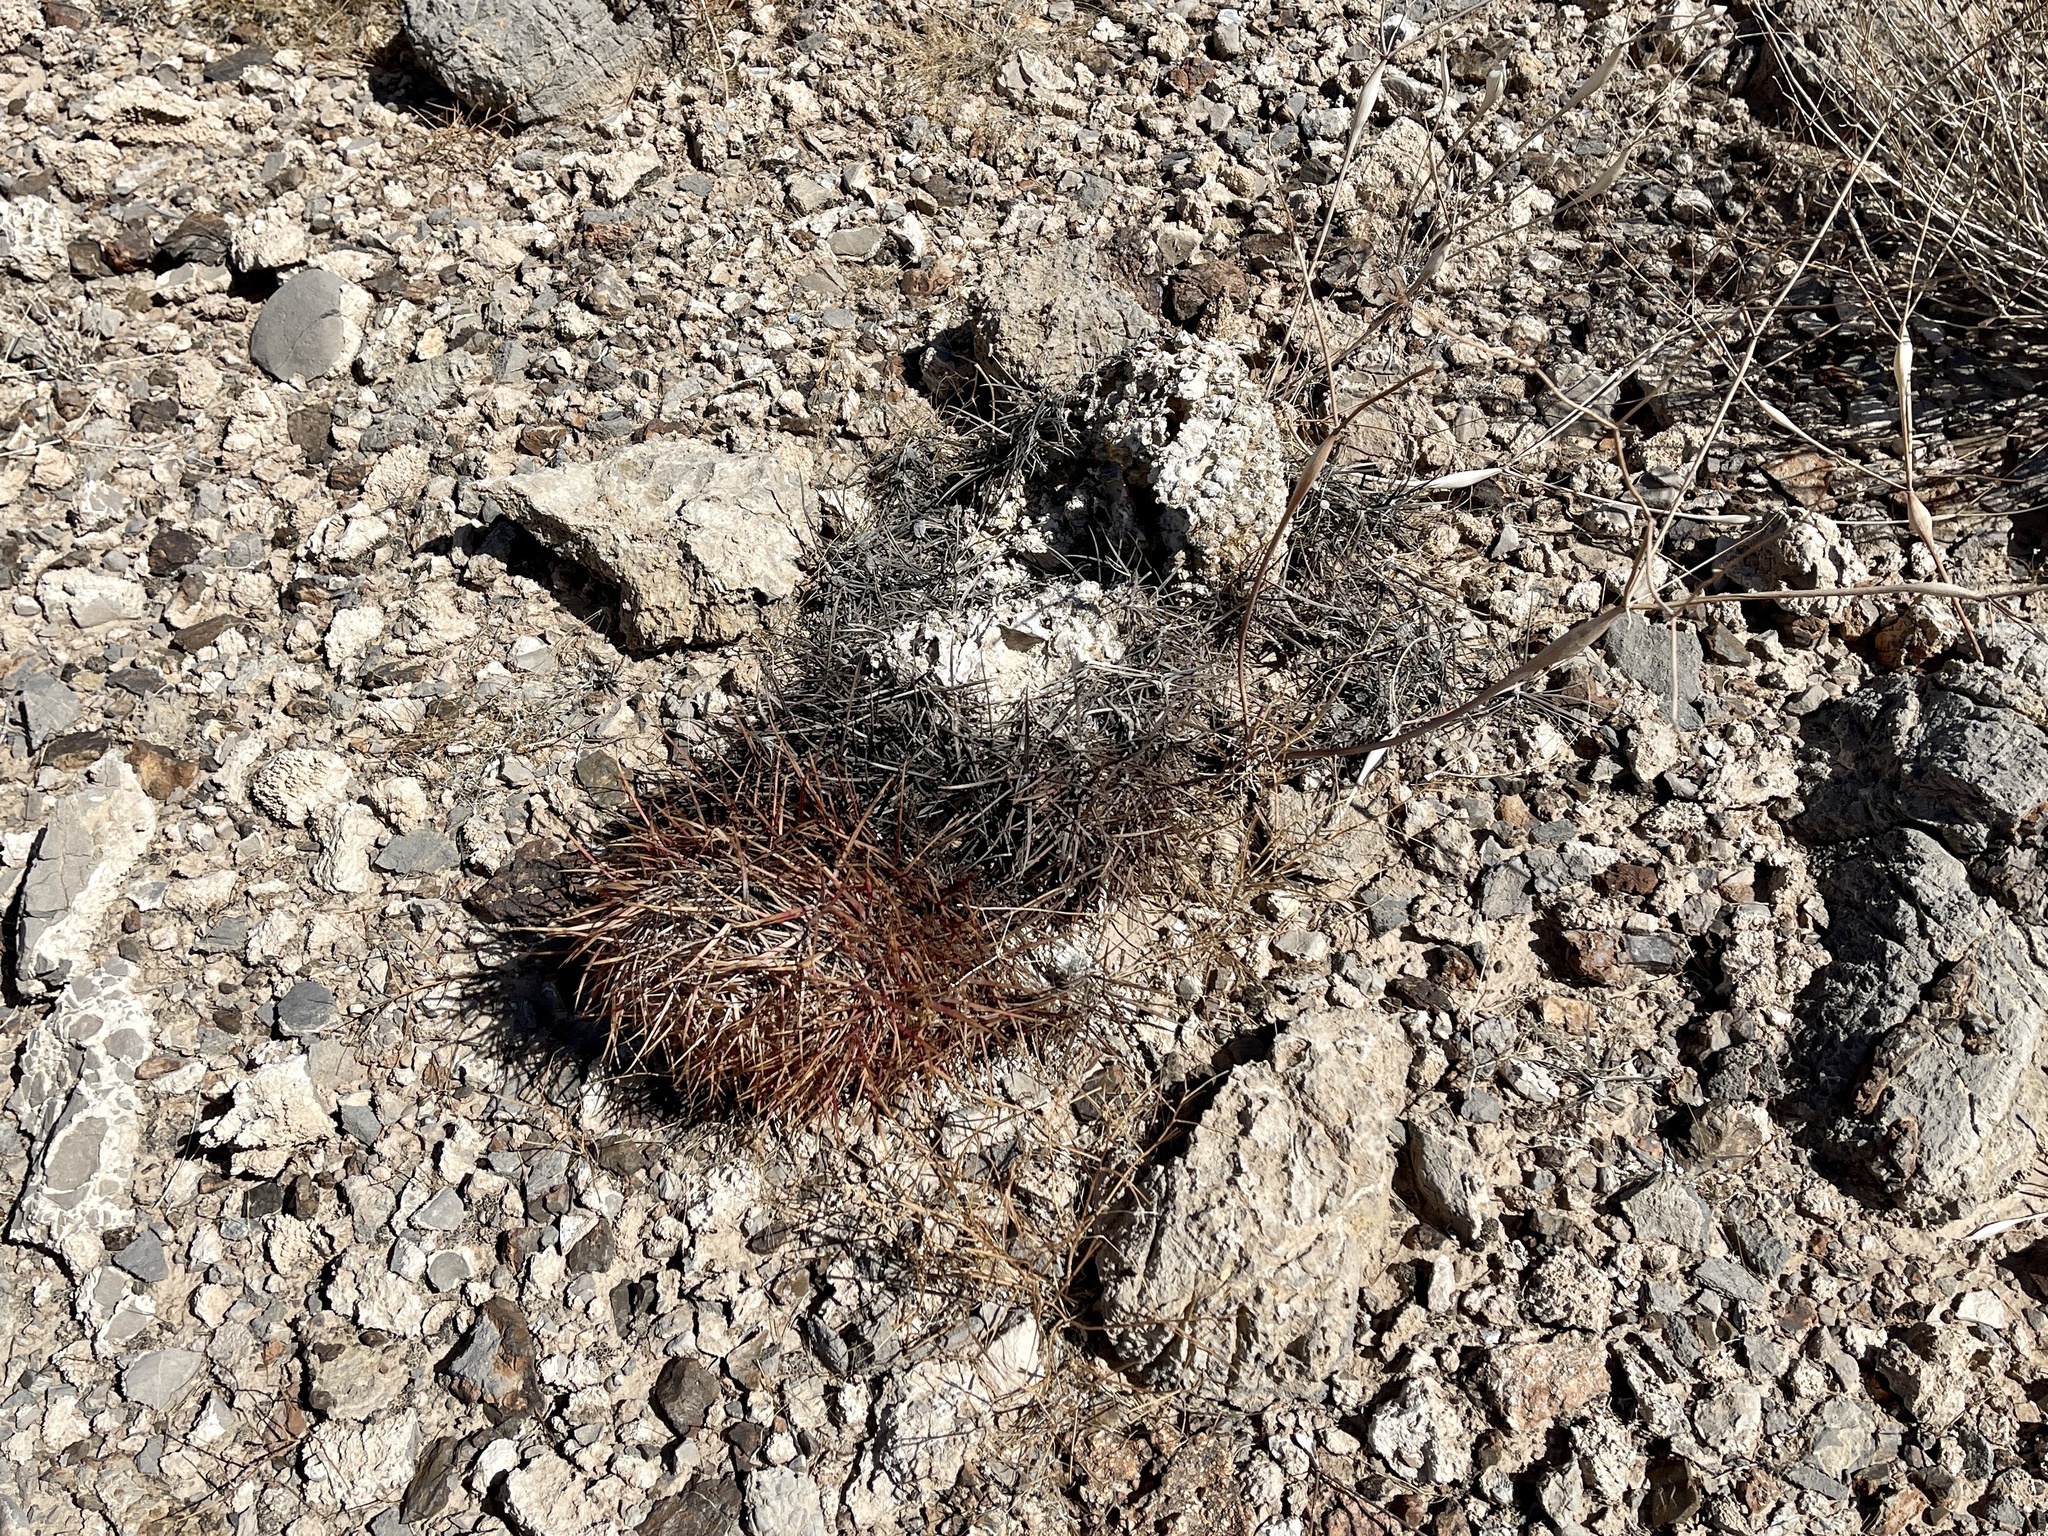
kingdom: Plantae
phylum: Tracheophyta
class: Magnoliopsida
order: Caryophyllales
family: Cactaceae
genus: Sclerocactus
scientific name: Sclerocactus johnsonii
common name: Eight-spine fishhook cactus
